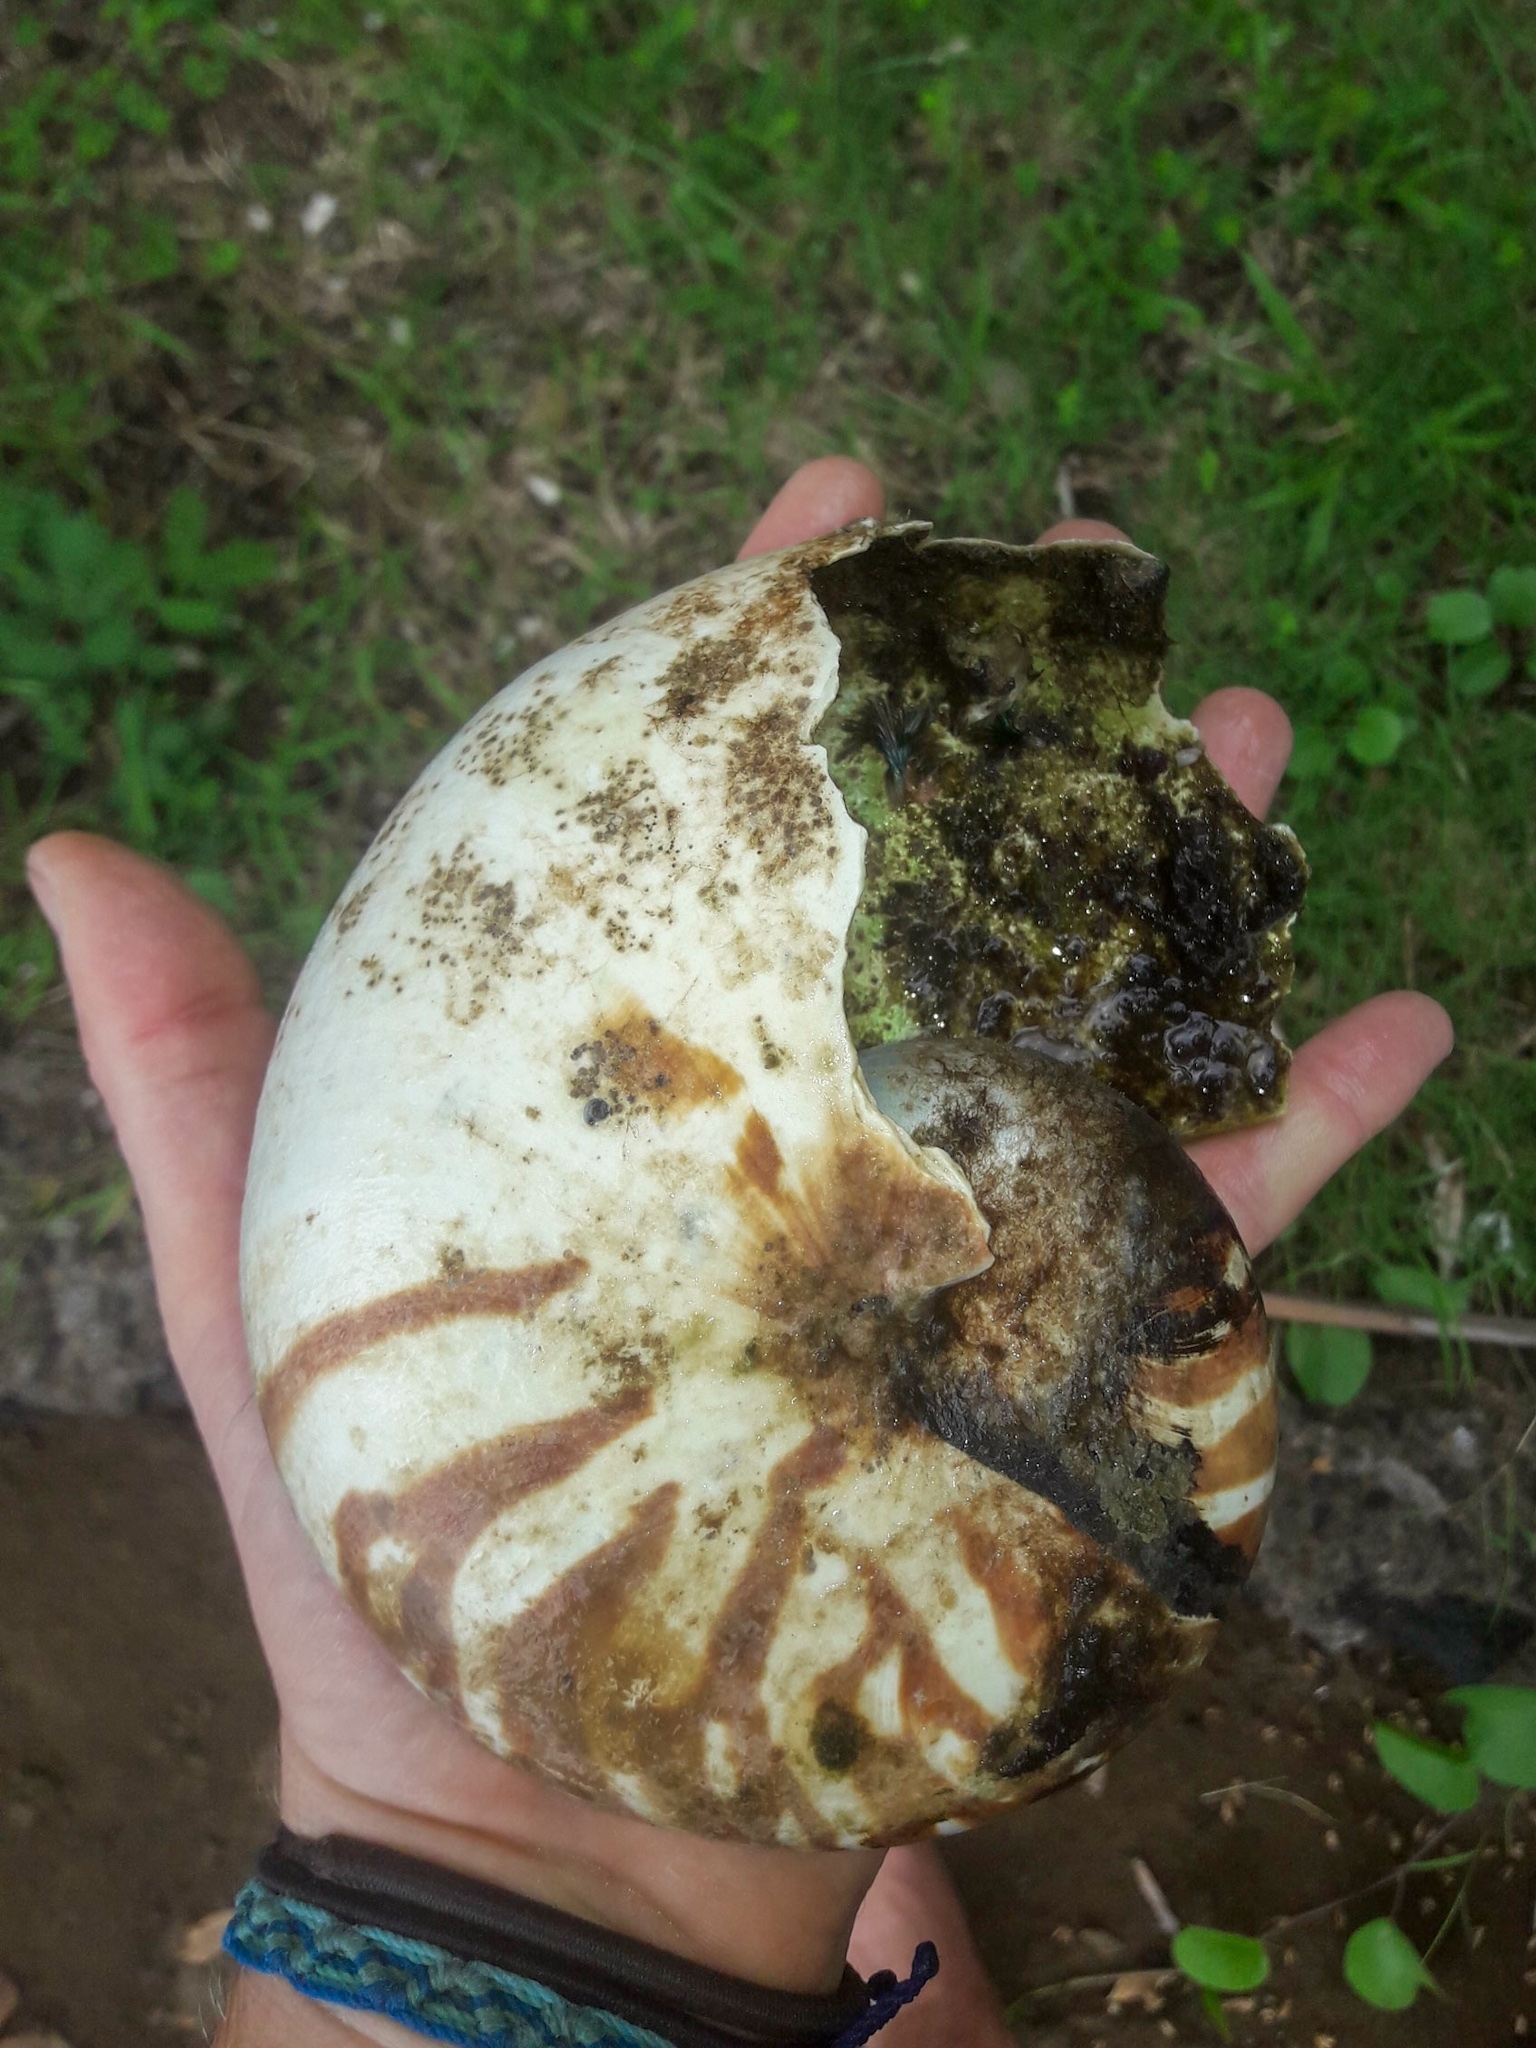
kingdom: Animalia
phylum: Mollusca
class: Cephalopoda
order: Nautilida
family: Nautilidae
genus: Nautilus
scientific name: Nautilus pompilius
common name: Emperor nautilus
